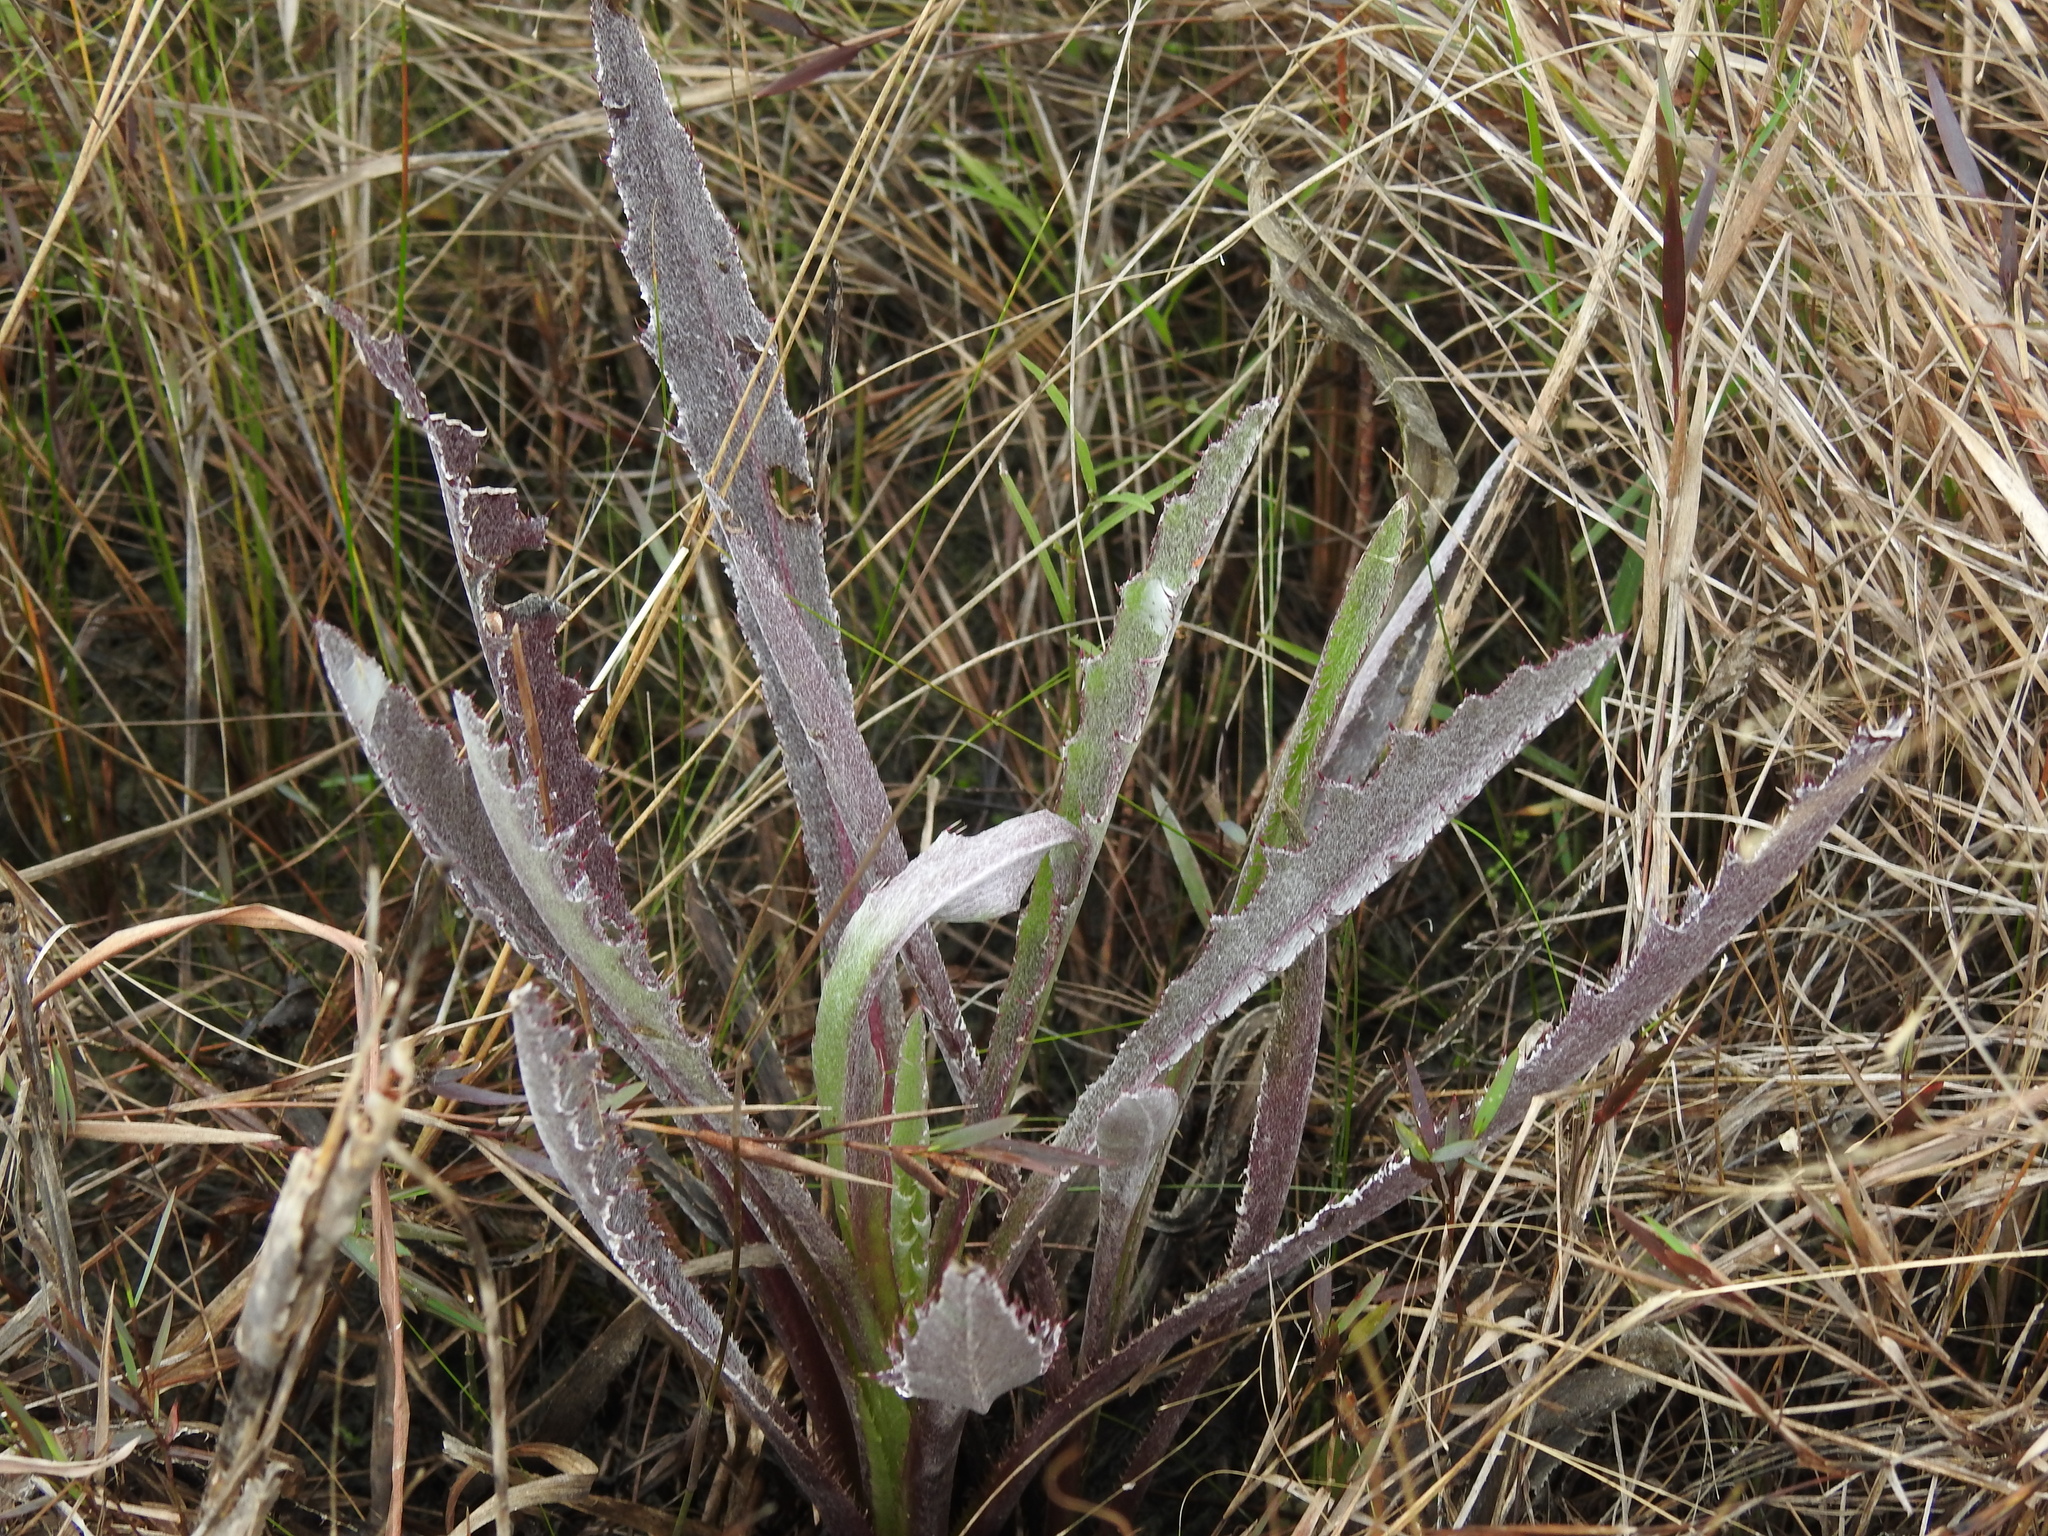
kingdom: Plantae
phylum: Tracheophyta
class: Magnoliopsida
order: Asterales
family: Asteraceae
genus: Cirsium
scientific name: Cirsium horridulum
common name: Bristly thistle
